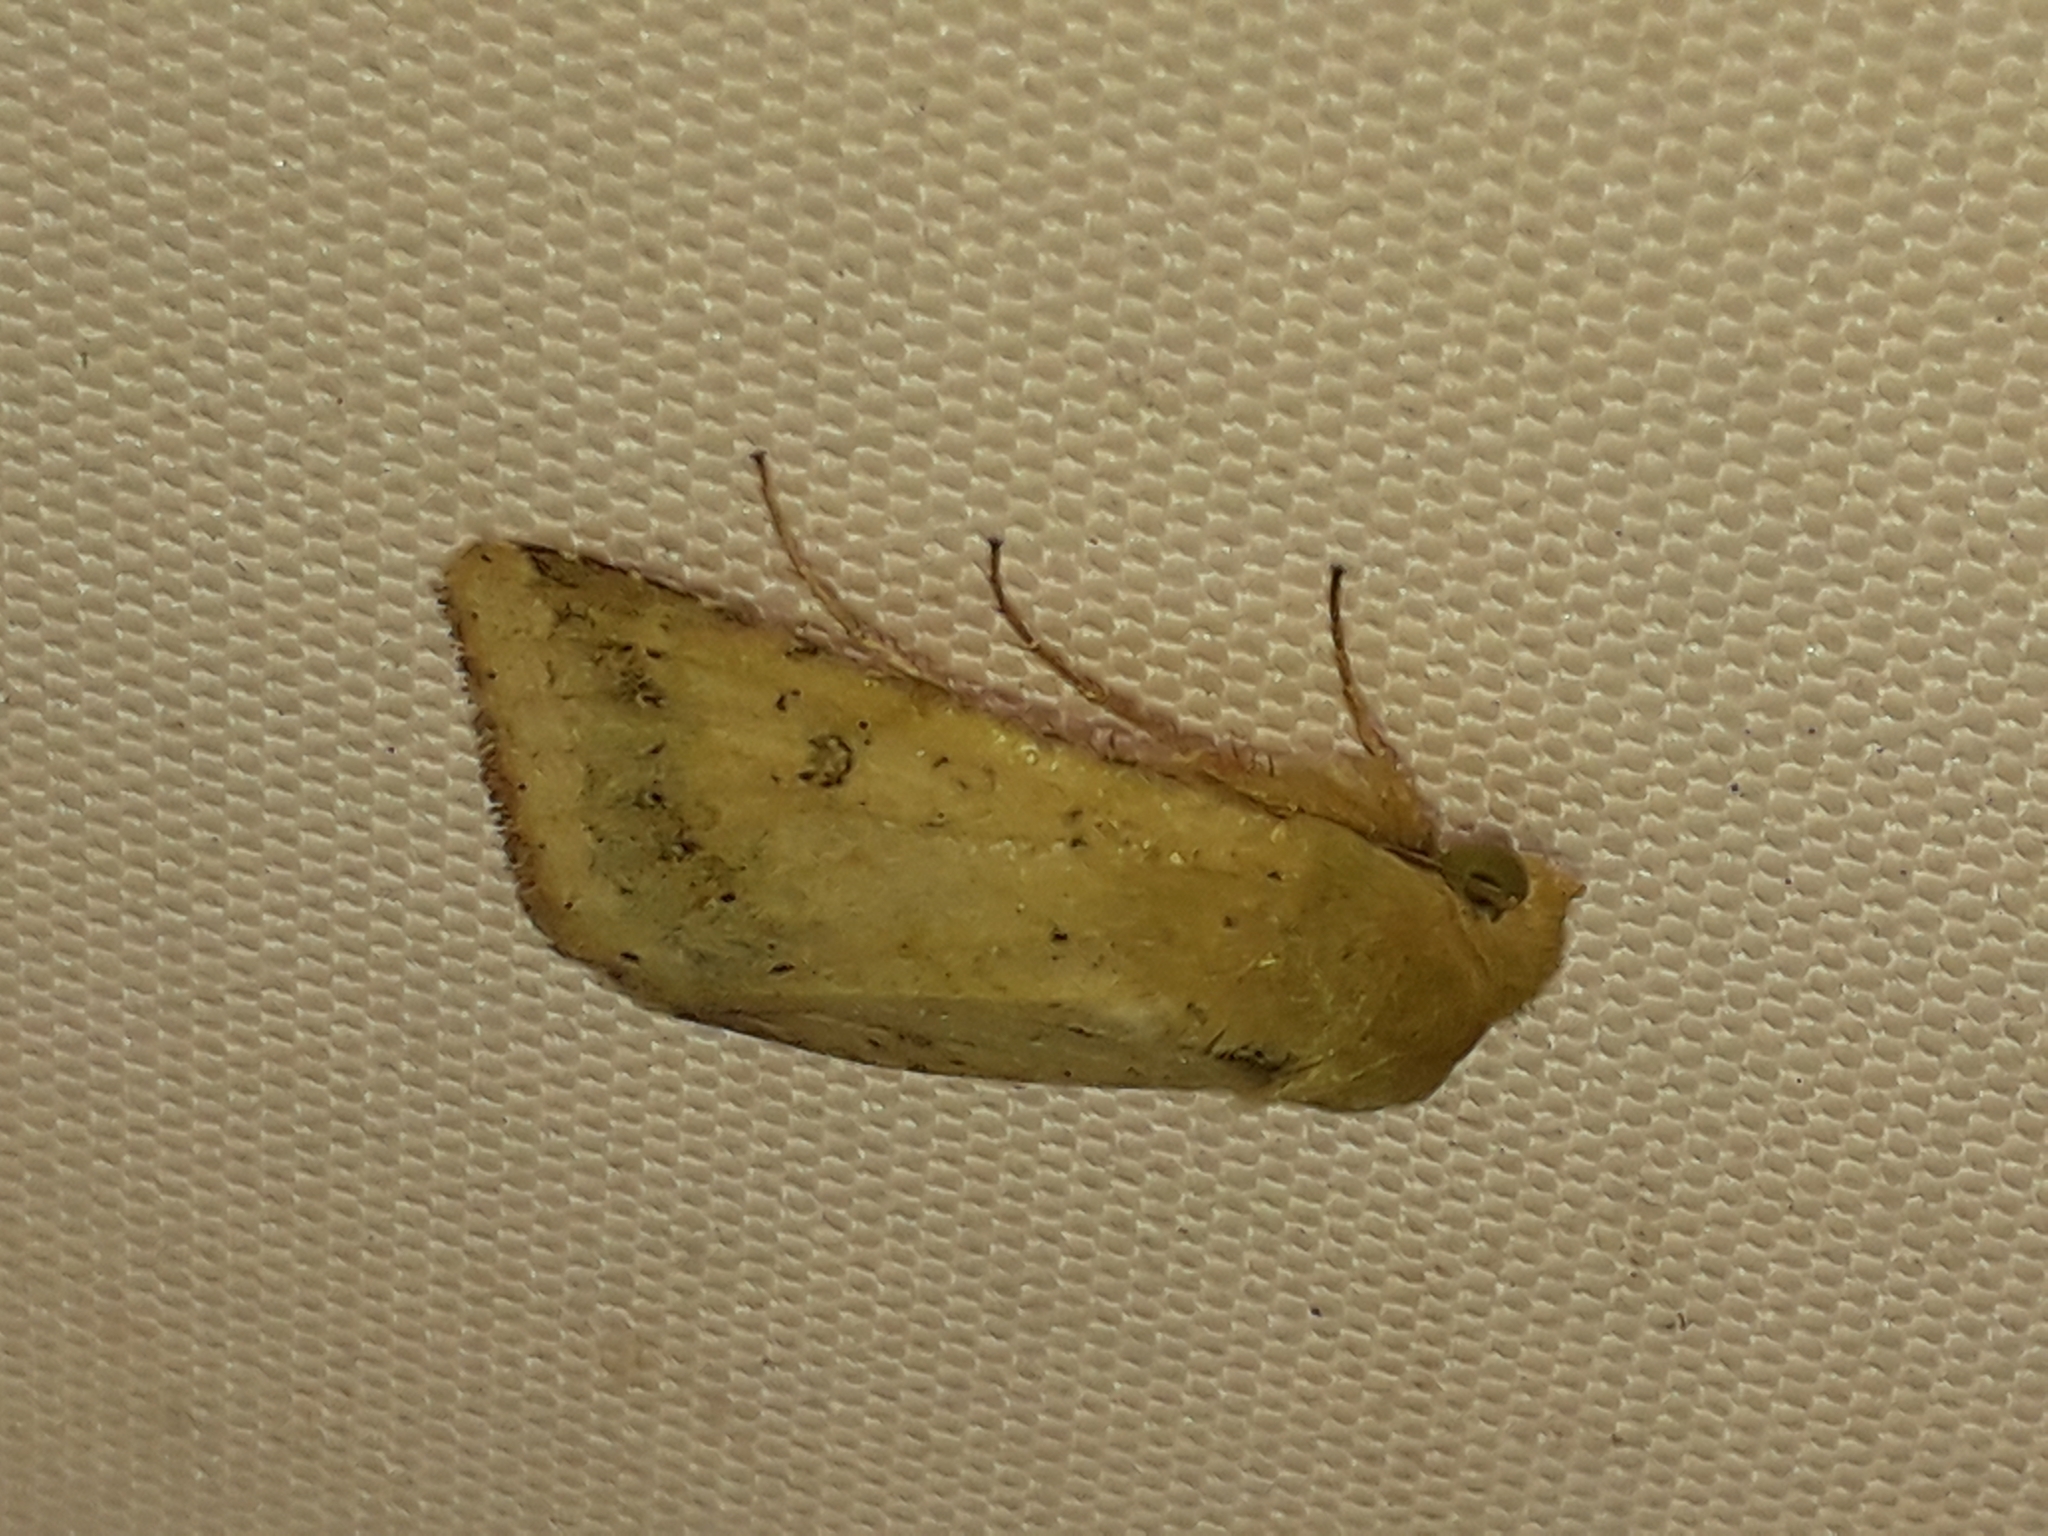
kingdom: Animalia
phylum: Arthropoda
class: Insecta
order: Lepidoptera
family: Noctuidae
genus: Helicoverpa
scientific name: Helicoverpa armigera
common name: Cotton bollworm
